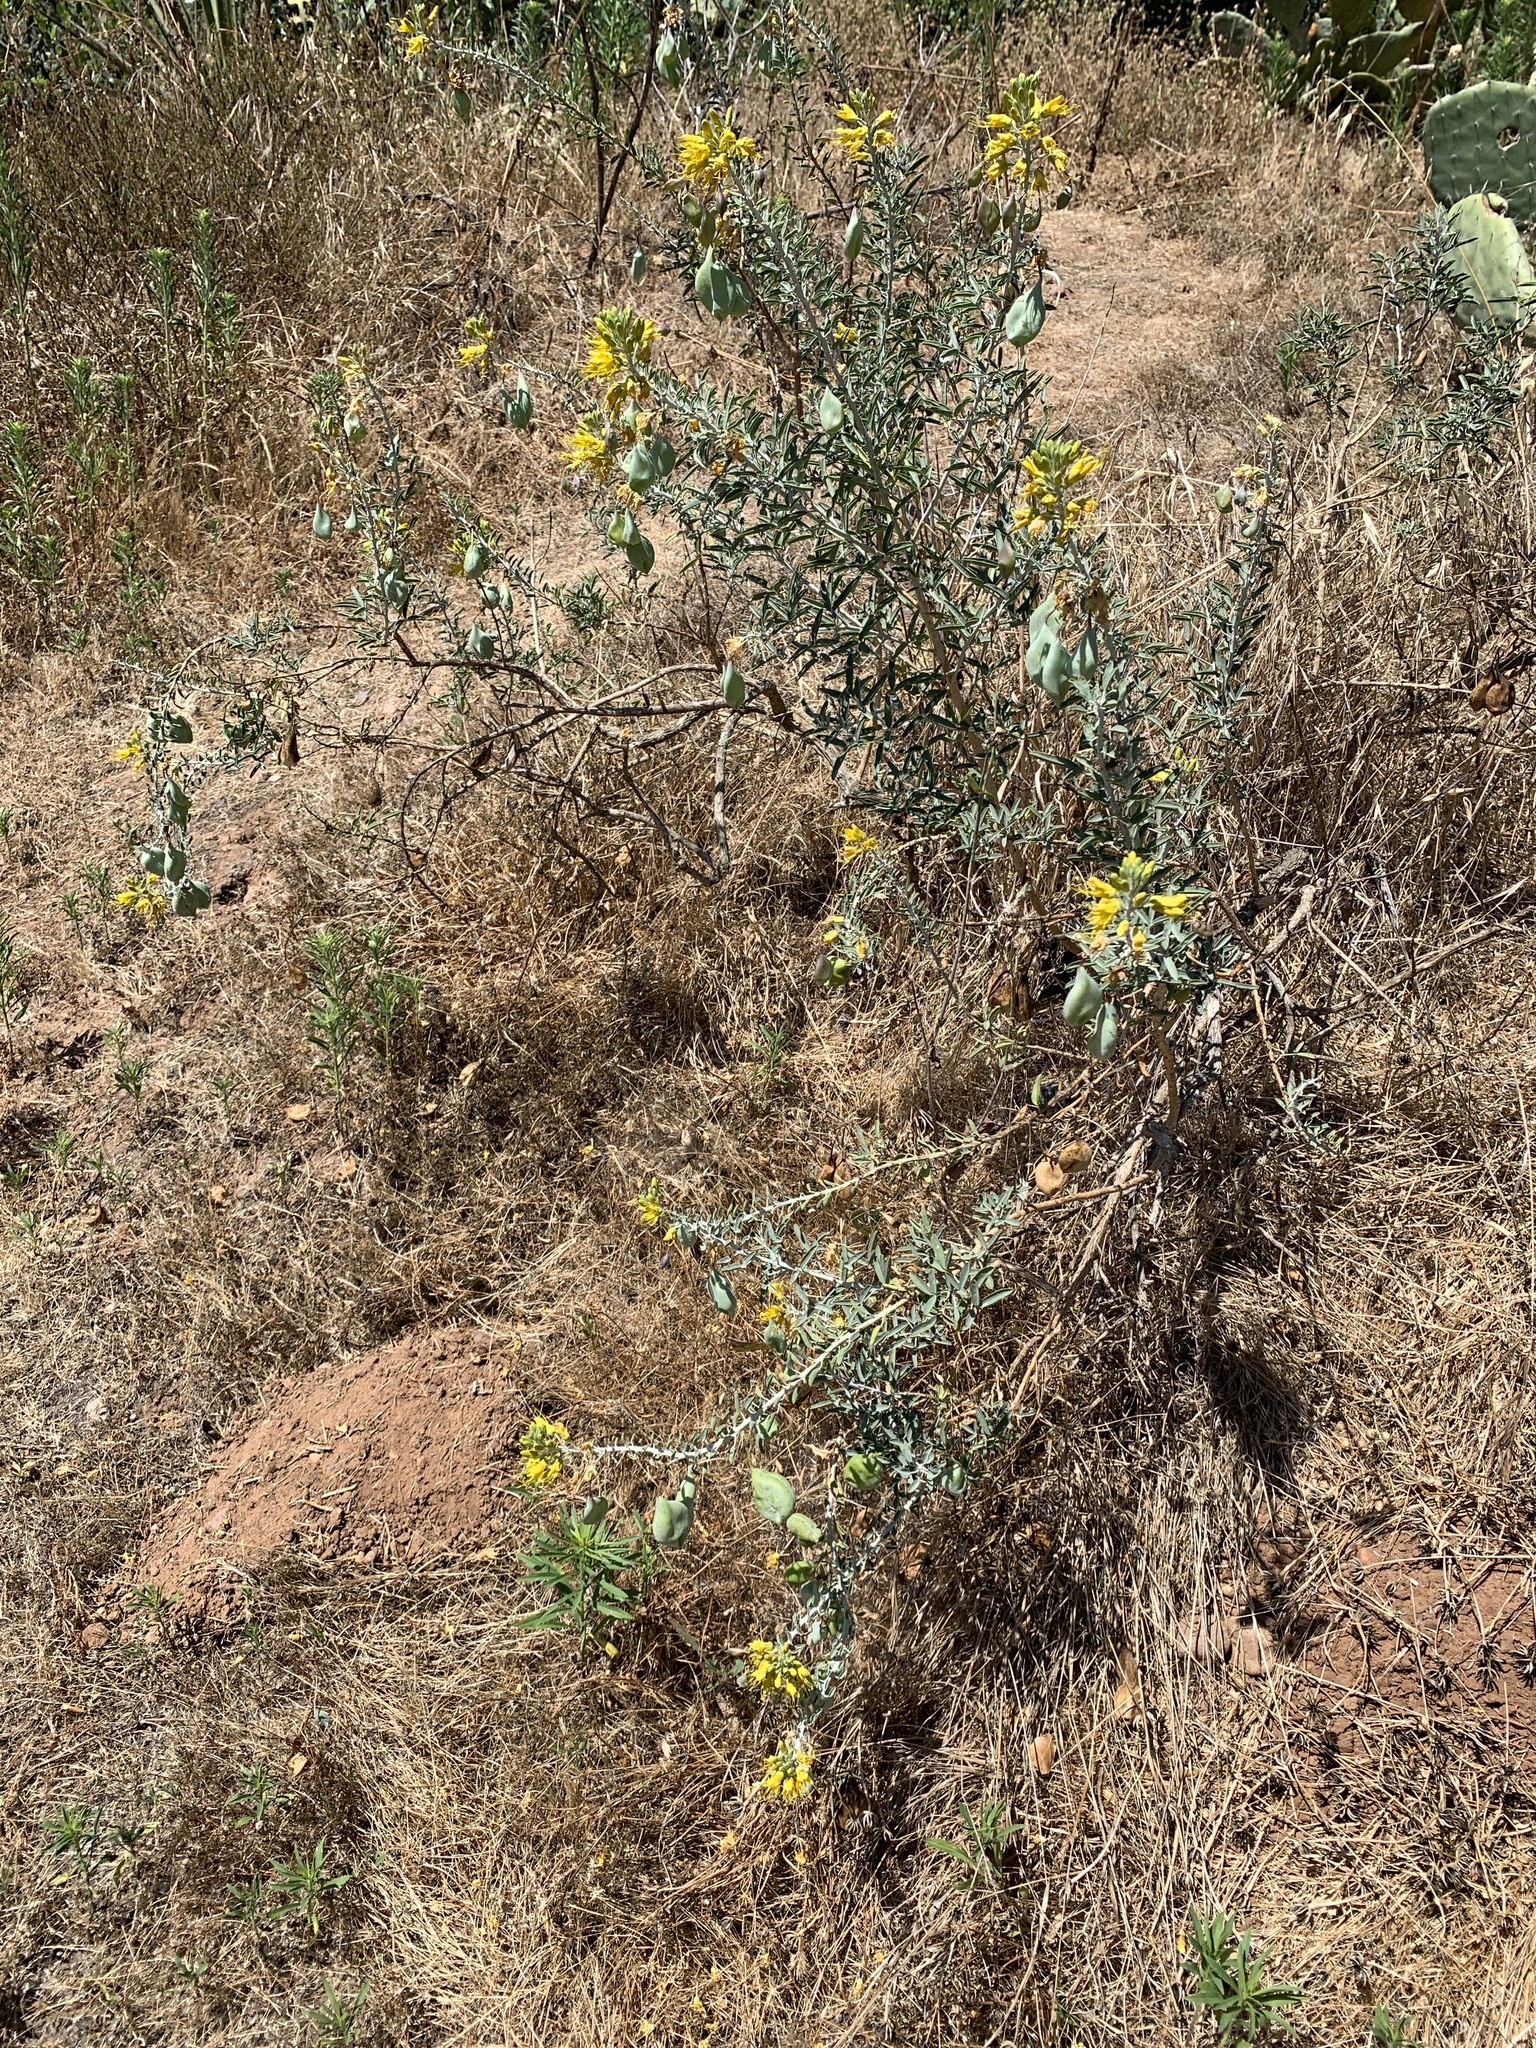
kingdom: Plantae
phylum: Tracheophyta
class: Magnoliopsida
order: Brassicales
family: Cleomaceae
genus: Cleomella
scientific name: Cleomella arborea
